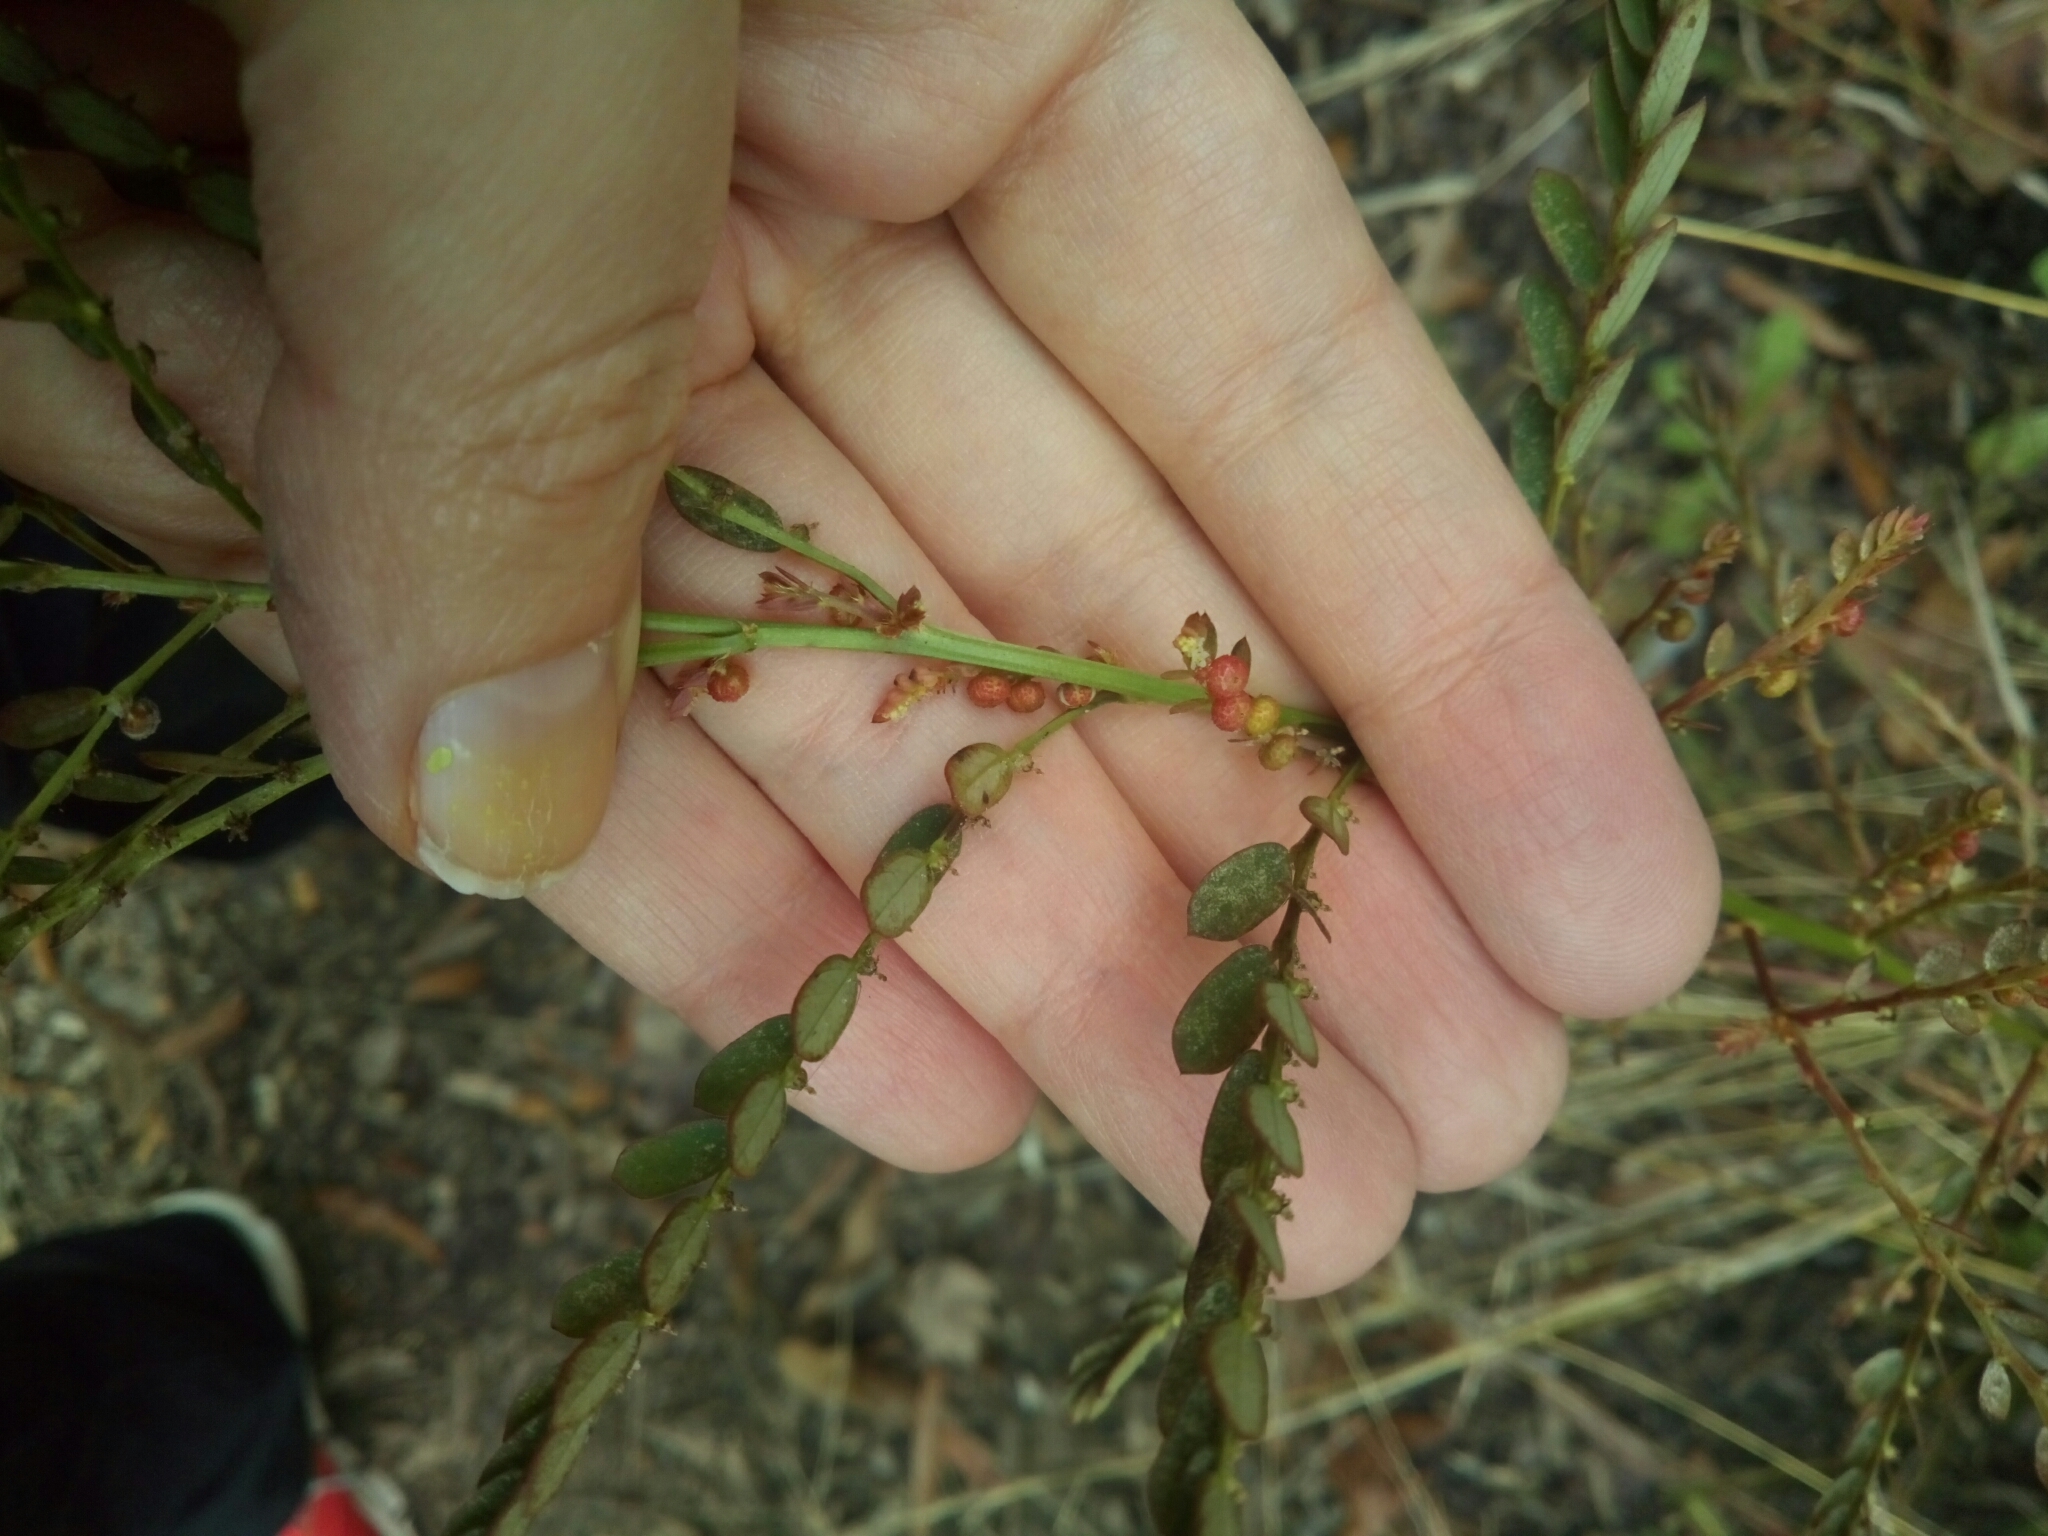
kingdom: Plantae
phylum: Tracheophyta
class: Magnoliopsida
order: Malpighiales
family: Phyllanthaceae
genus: Phyllanthus
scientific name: Phyllanthus urinaria
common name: Chamber bitter
